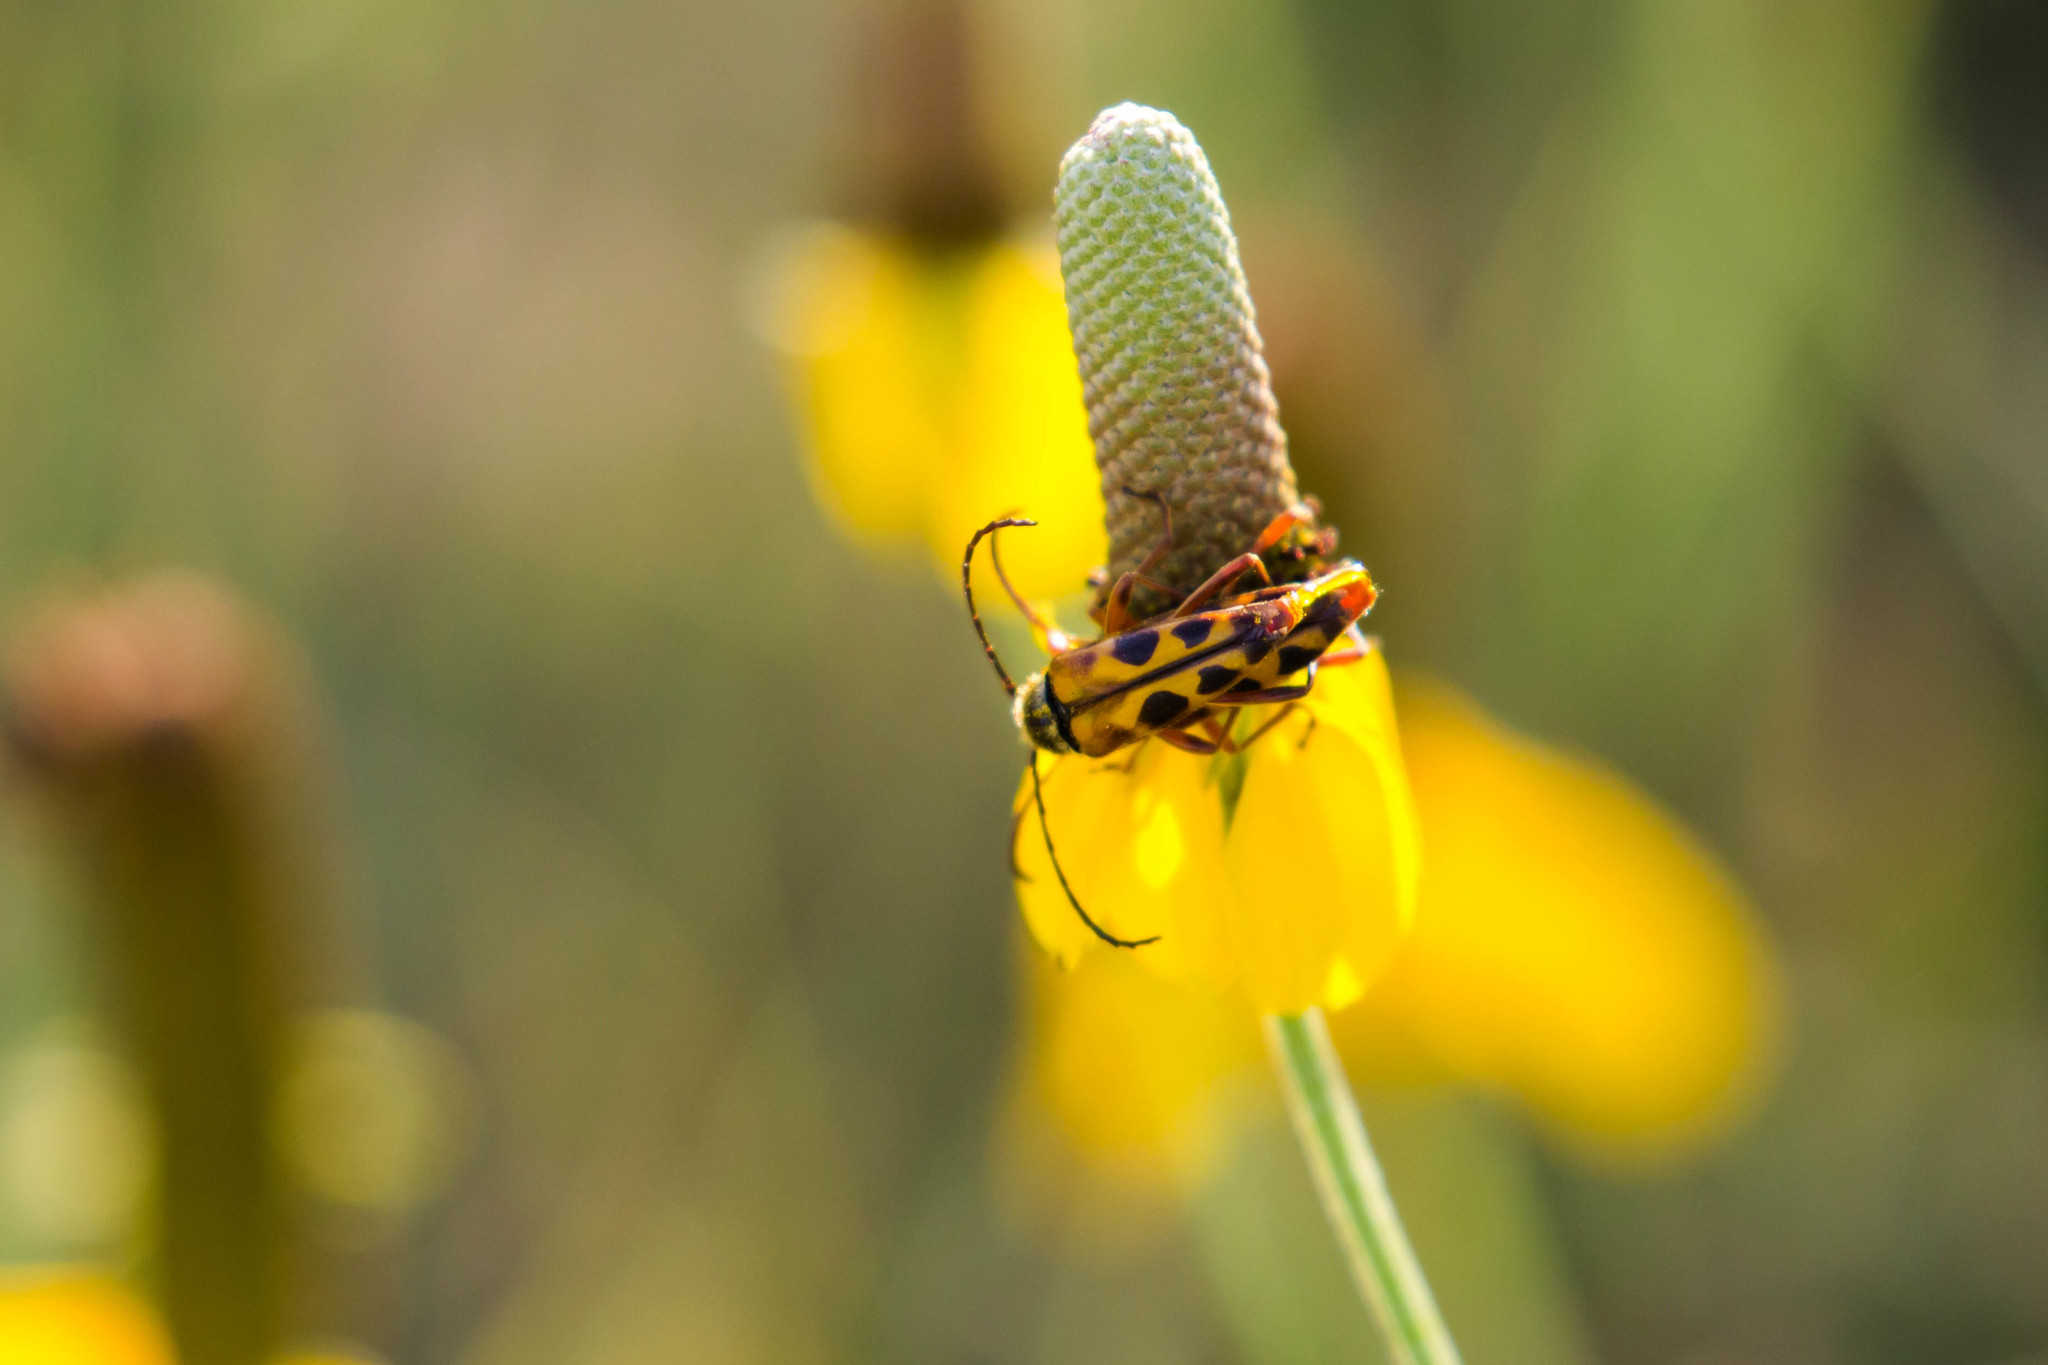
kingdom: Animalia
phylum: Arthropoda
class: Insecta
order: Coleoptera
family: Cerambycidae
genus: Typocerus
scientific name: Typocerus octonotatus
